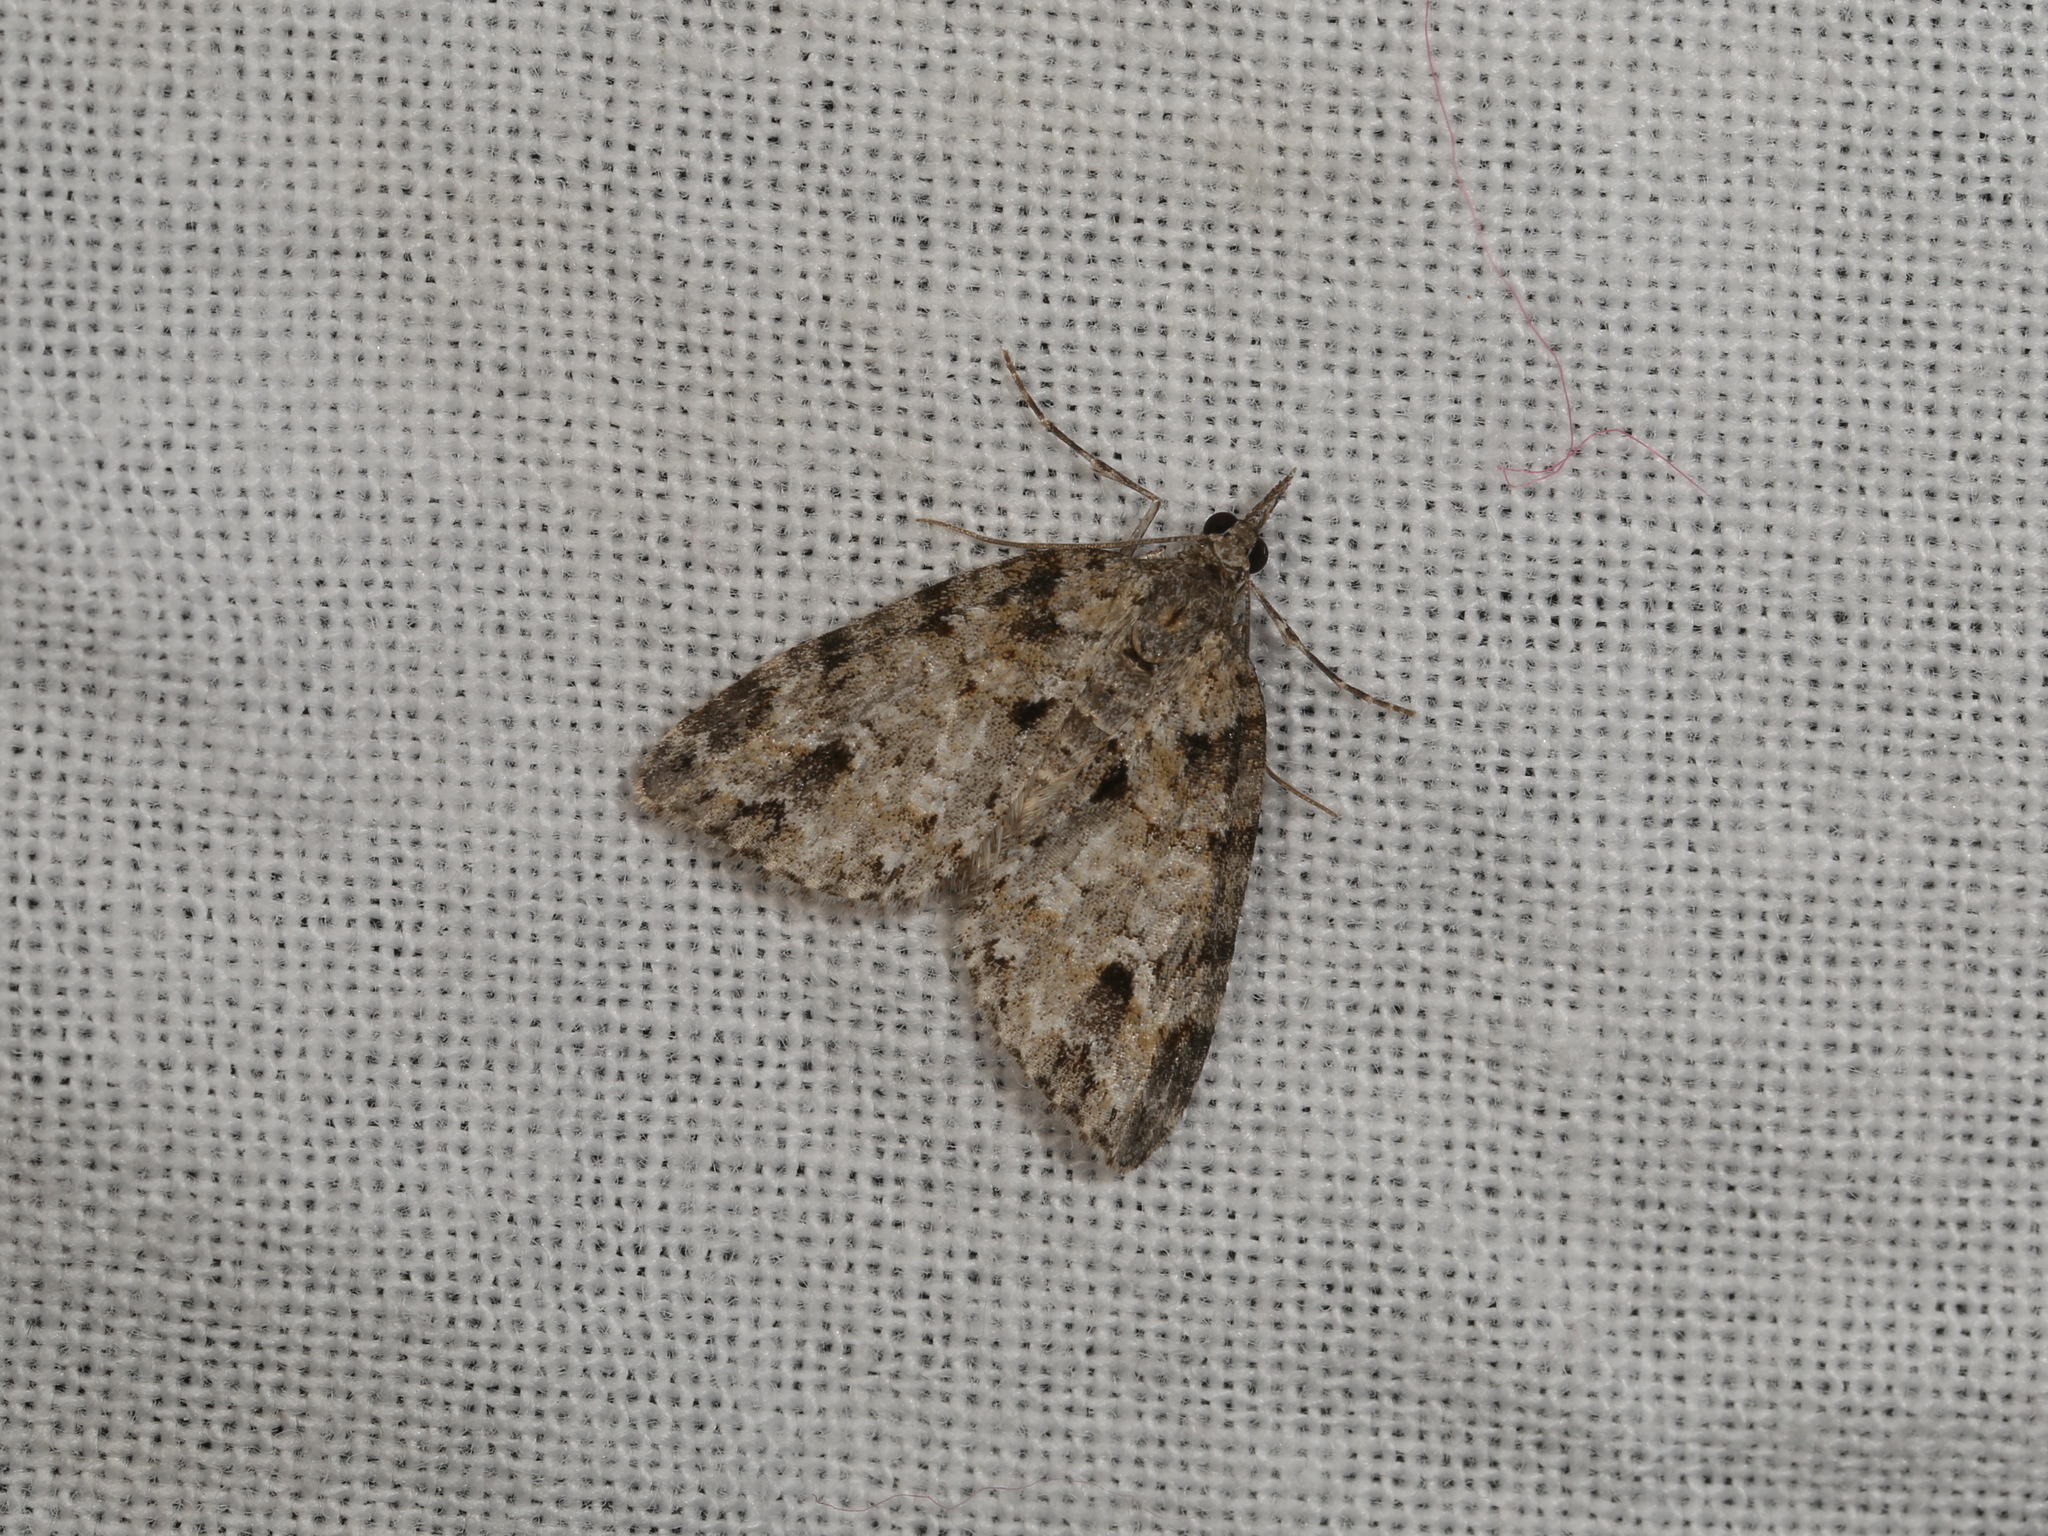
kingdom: Animalia
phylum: Arthropoda
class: Insecta
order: Lepidoptera
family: Geometridae
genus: Microdes
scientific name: Microdes villosata
